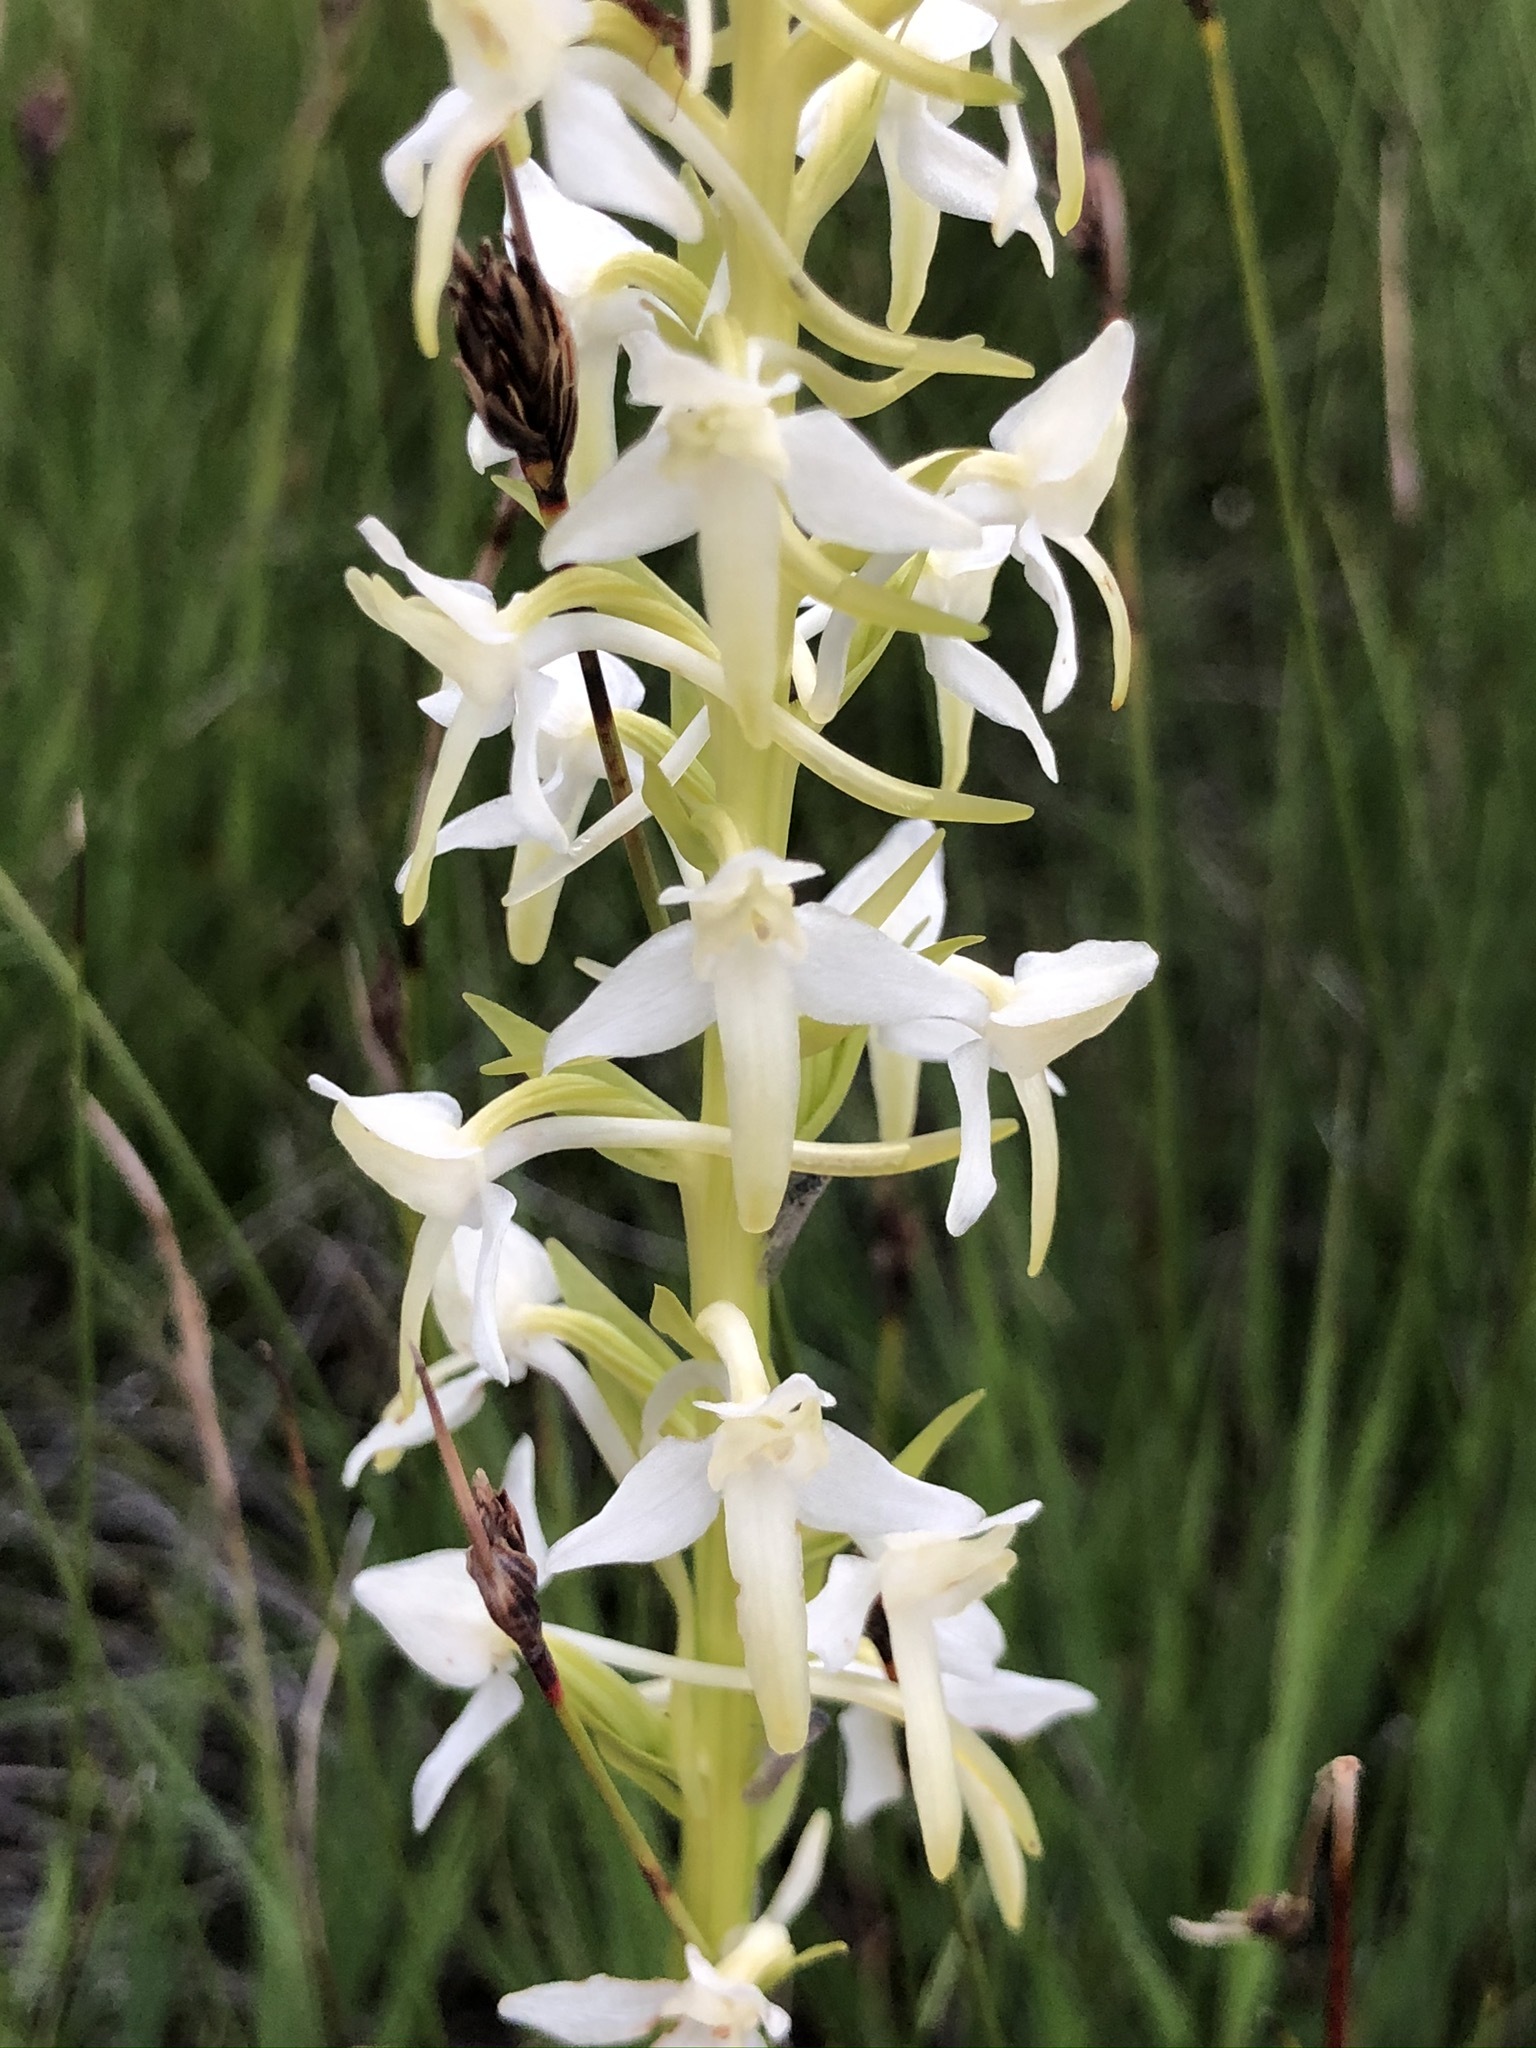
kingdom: Plantae
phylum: Tracheophyta
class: Liliopsida
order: Asparagales
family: Orchidaceae
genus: Platanthera
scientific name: Platanthera bifolia
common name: Lesser butterfly-orchid
